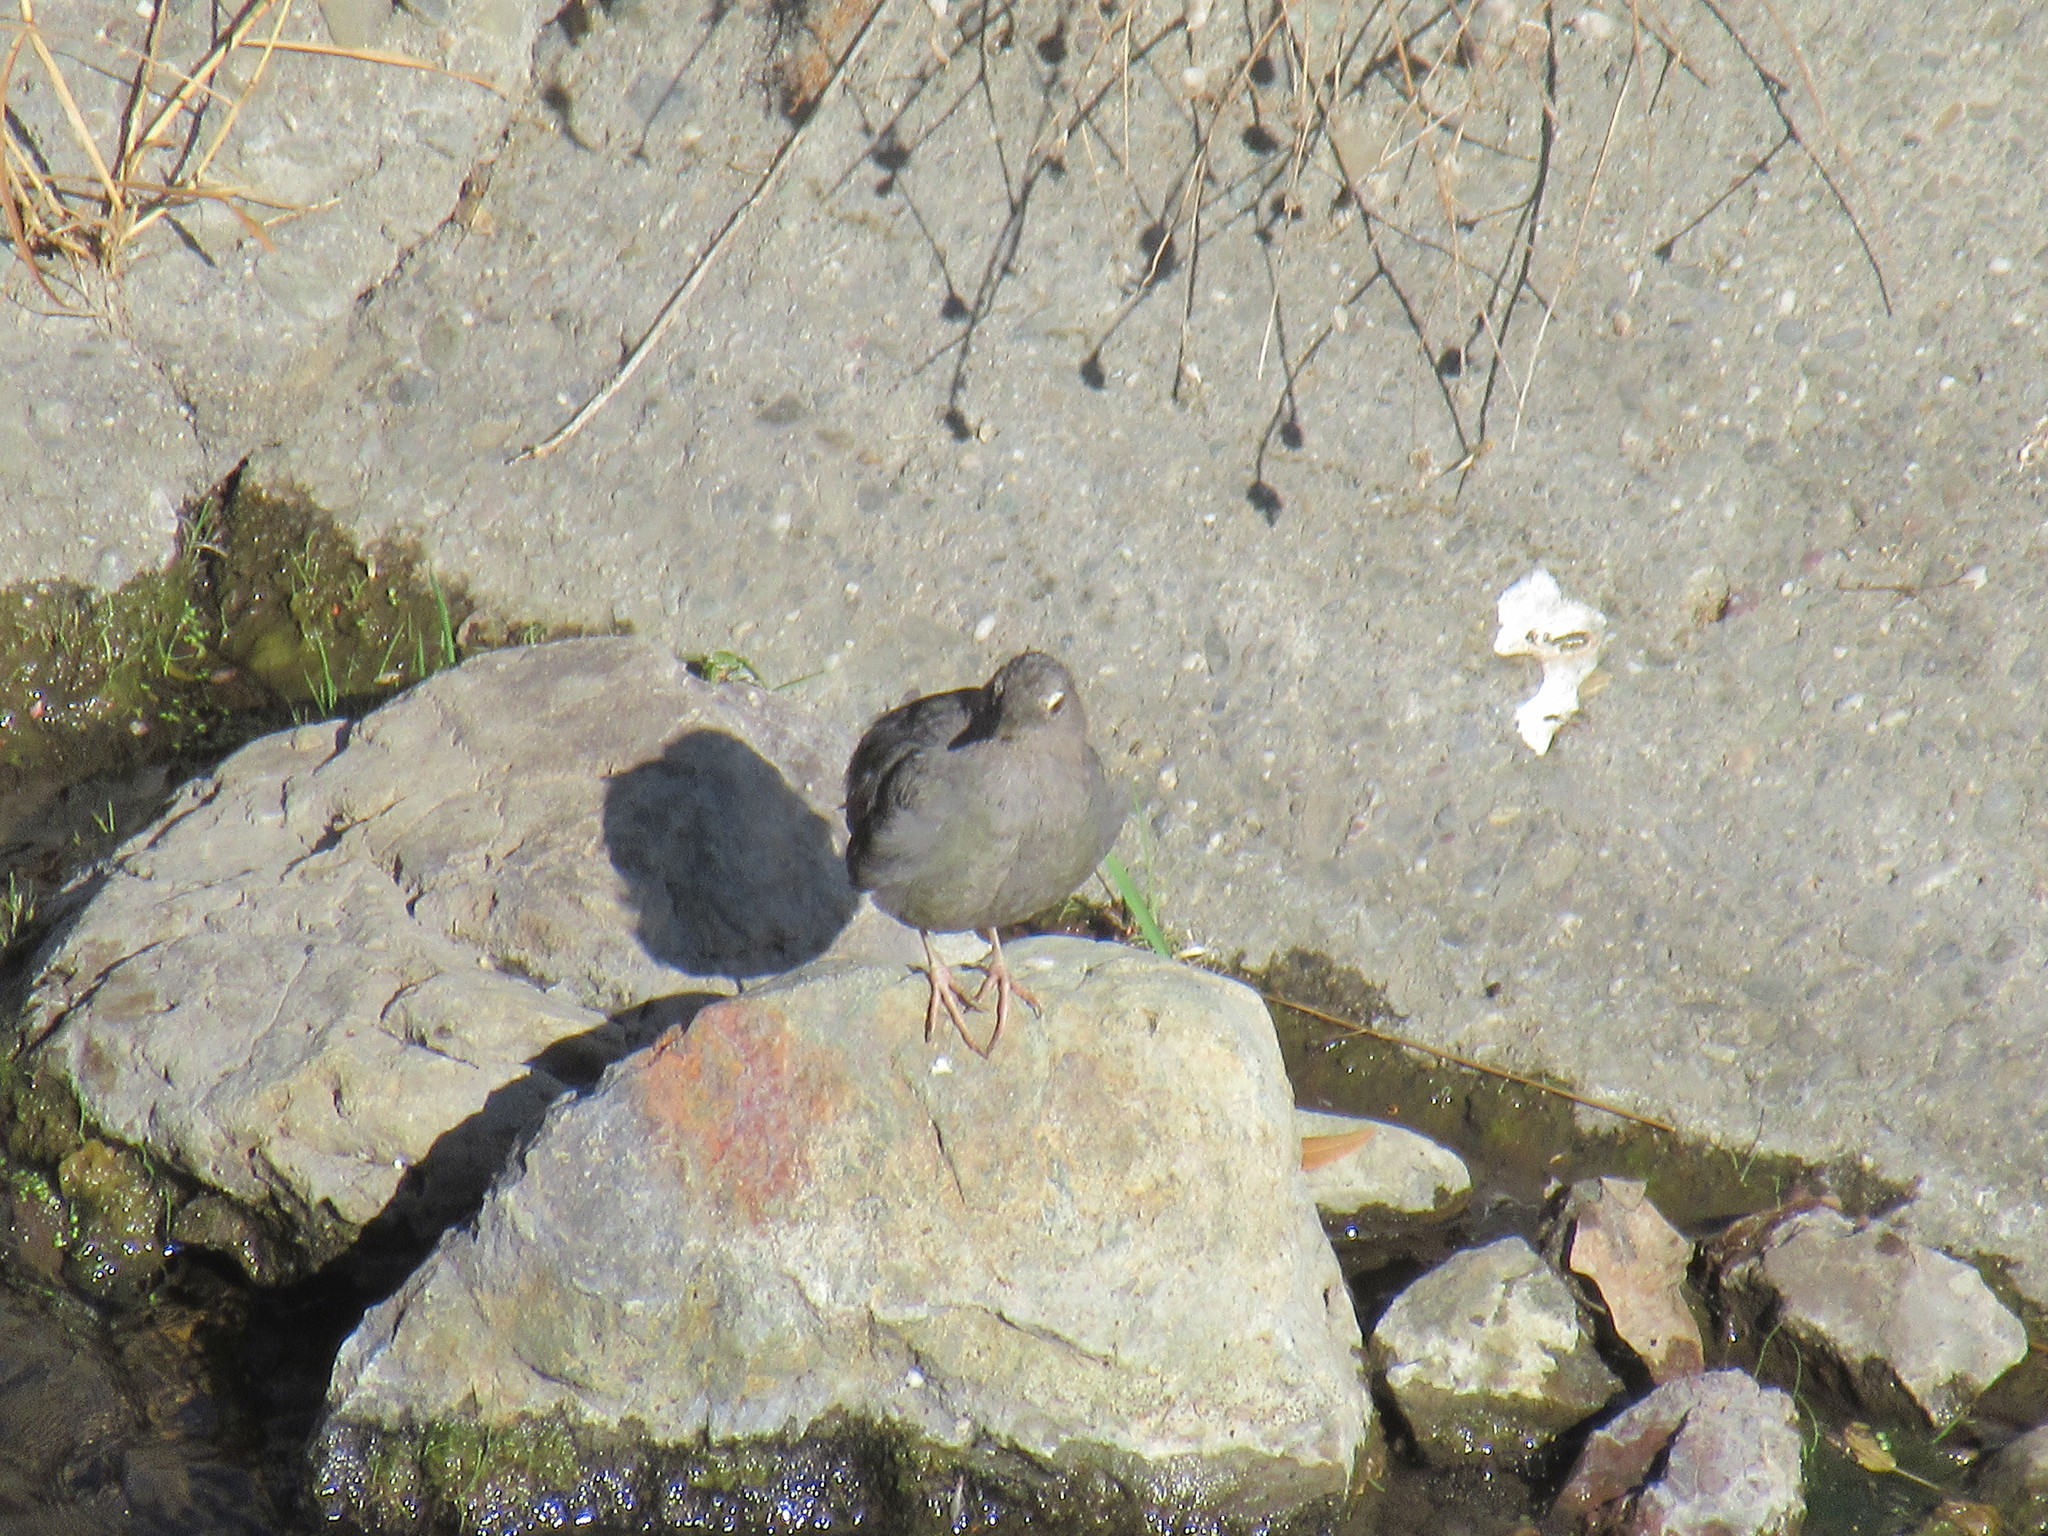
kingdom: Animalia
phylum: Chordata
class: Aves
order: Passeriformes
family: Cinclidae
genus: Cinclus
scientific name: Cinclus mexicanus
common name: American dipper
